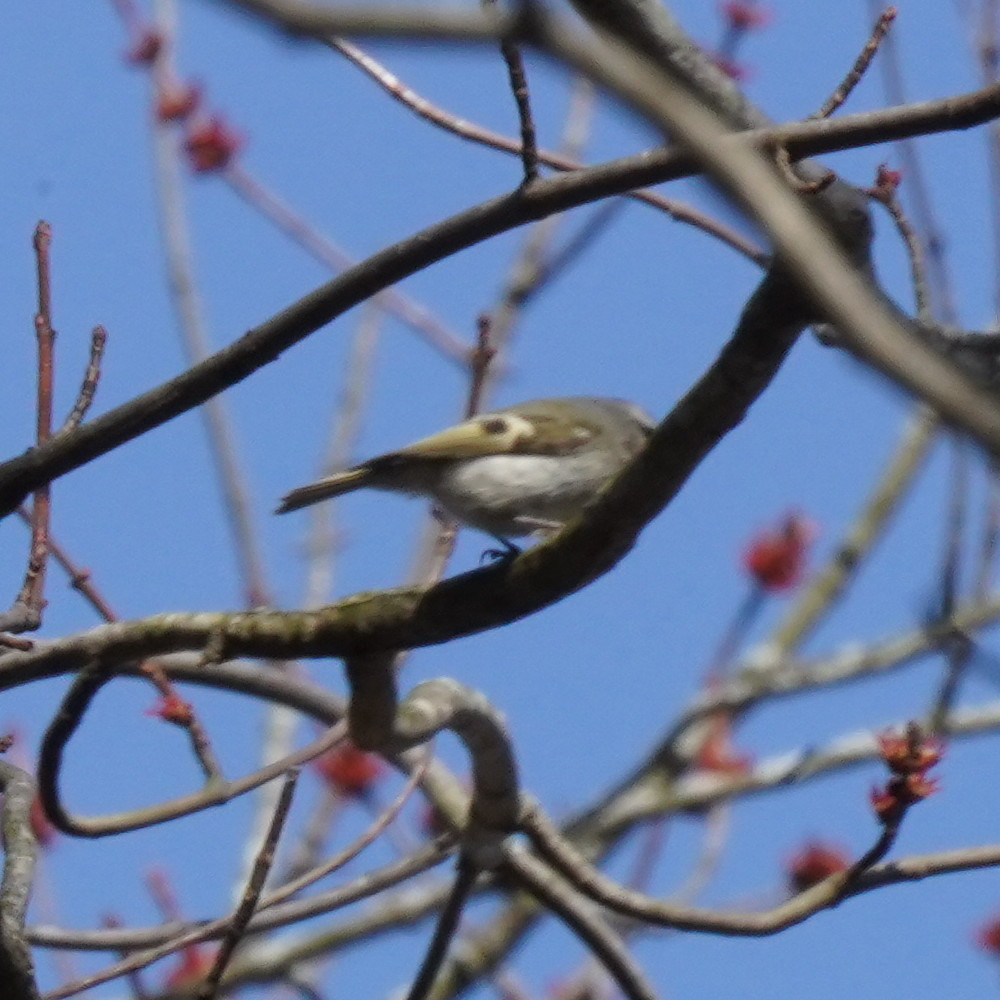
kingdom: Animalia
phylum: Chordata
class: Aves
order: Passeriformes
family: Regulidae
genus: Regulus
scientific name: Regulus satrapa
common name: Golden-crowned kinglet
